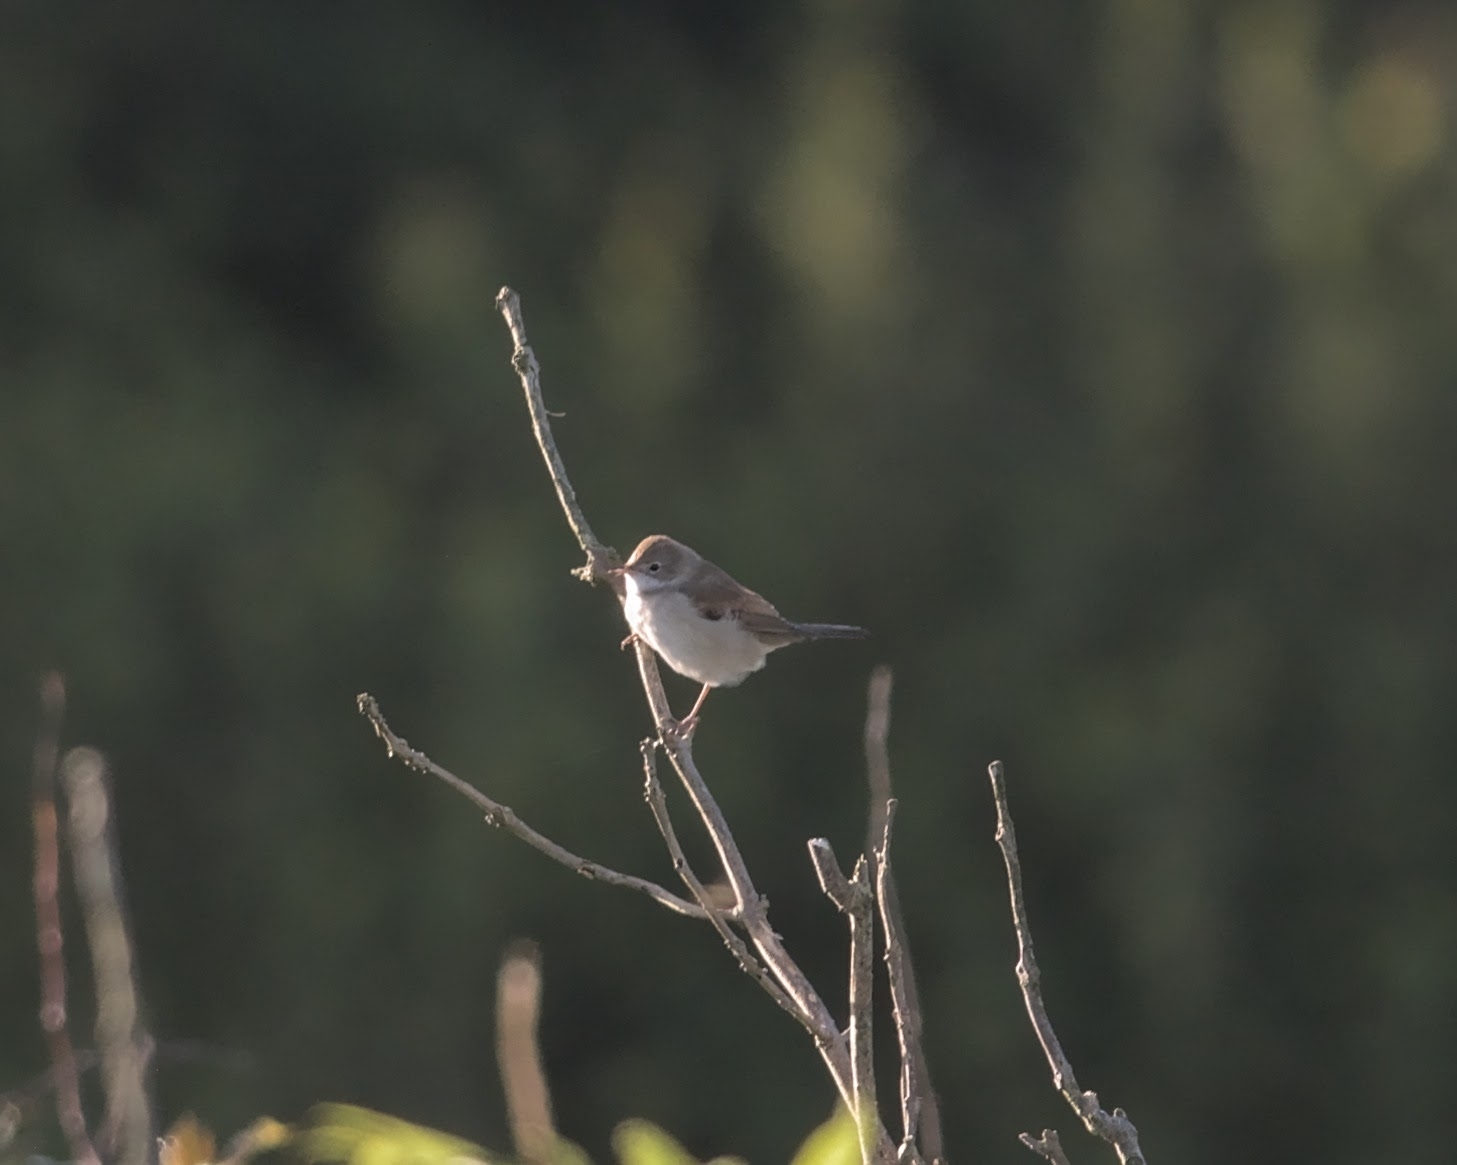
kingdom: Animalia
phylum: Chordata
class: Aves
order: Passeriformes
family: Sylviidae
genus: Sylvia
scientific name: Sylvia communis
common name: Common whitethroat
